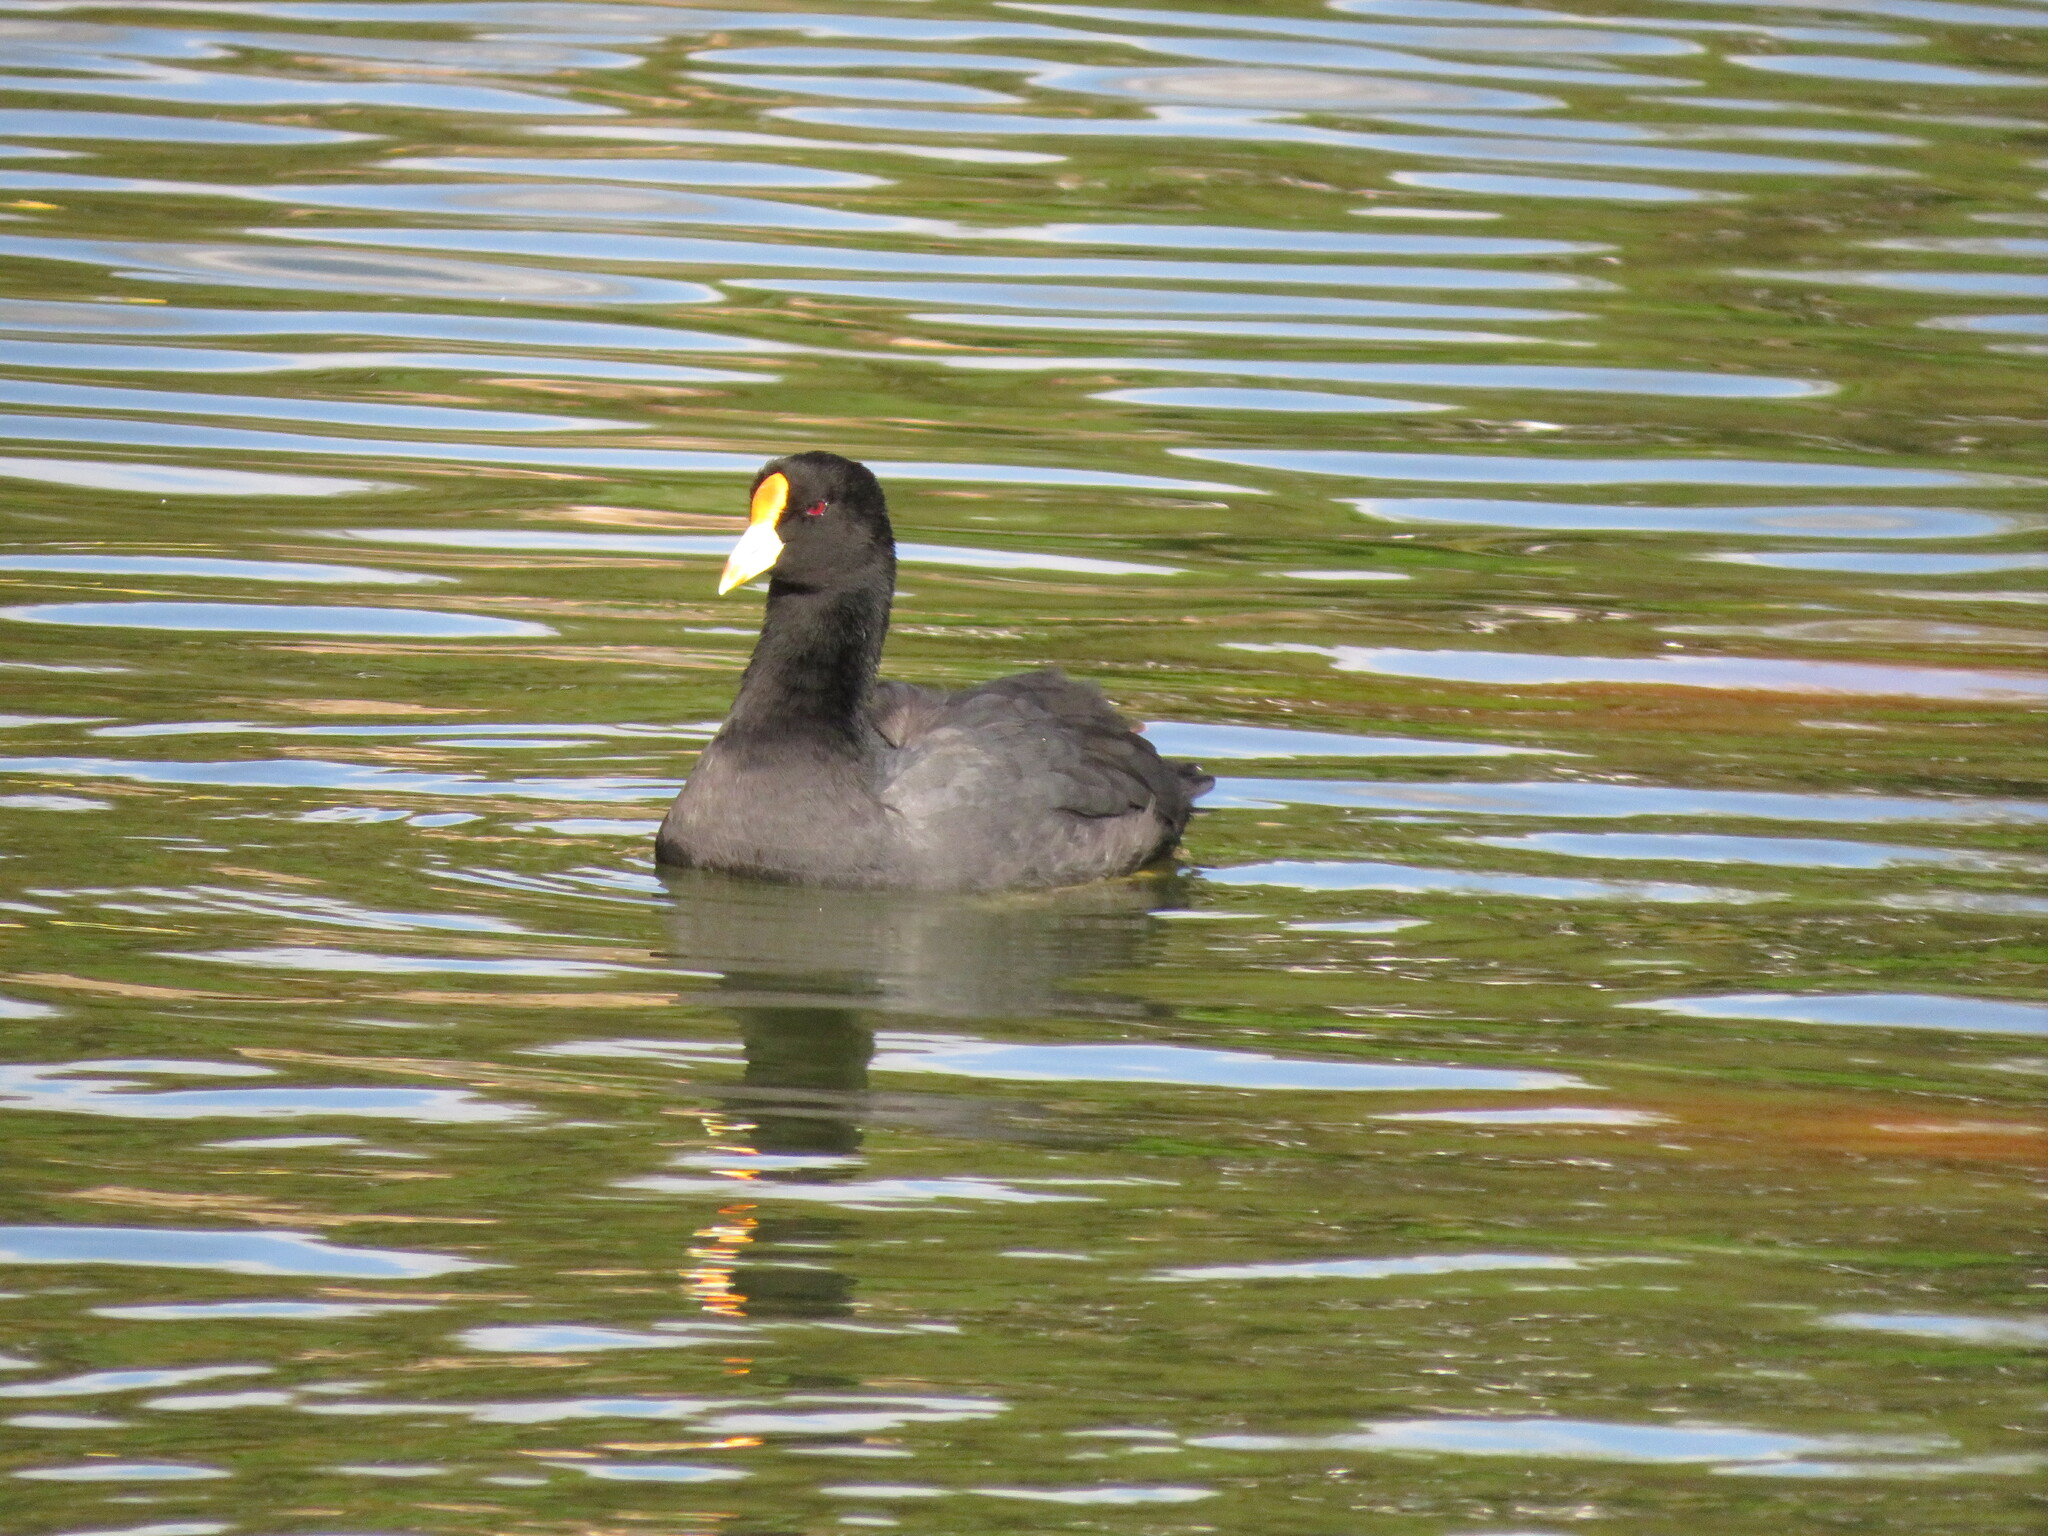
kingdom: Animalia
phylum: Chordata
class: Aves
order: Gruiformes
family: Rallidae
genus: Fulica
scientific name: Fulica leucoptera
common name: White-winged coot
